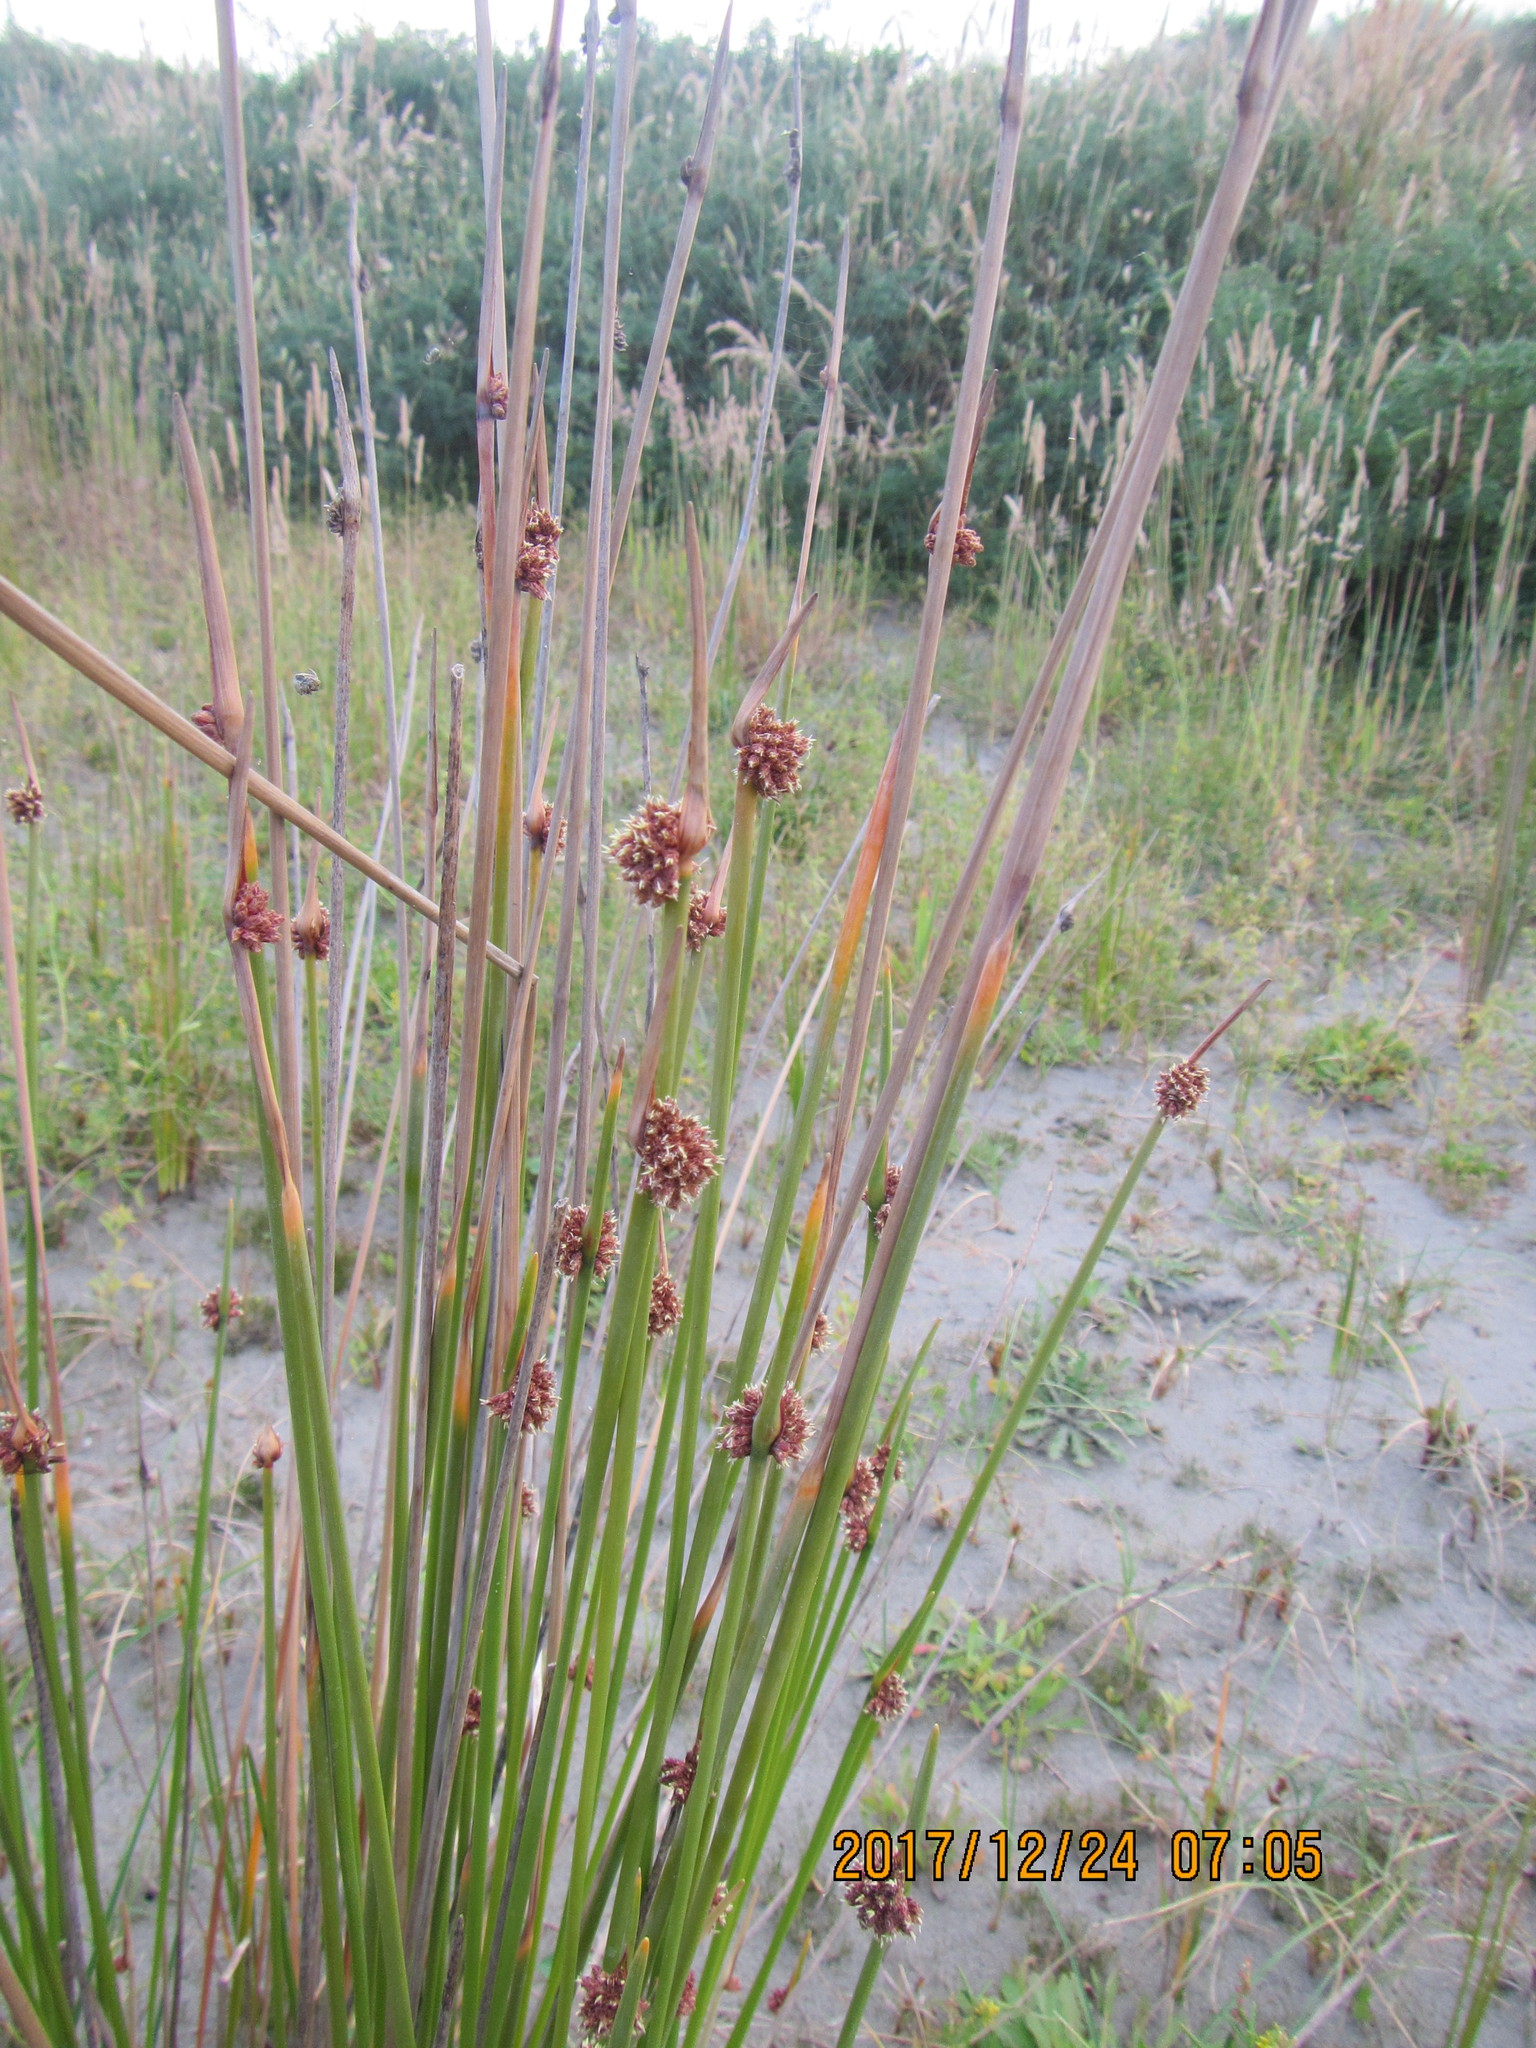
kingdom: Plantae
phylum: Tracheophyta
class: Liliopsida
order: Poales
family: Cyperaceae
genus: Ficinia
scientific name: Ficinia nodosa
